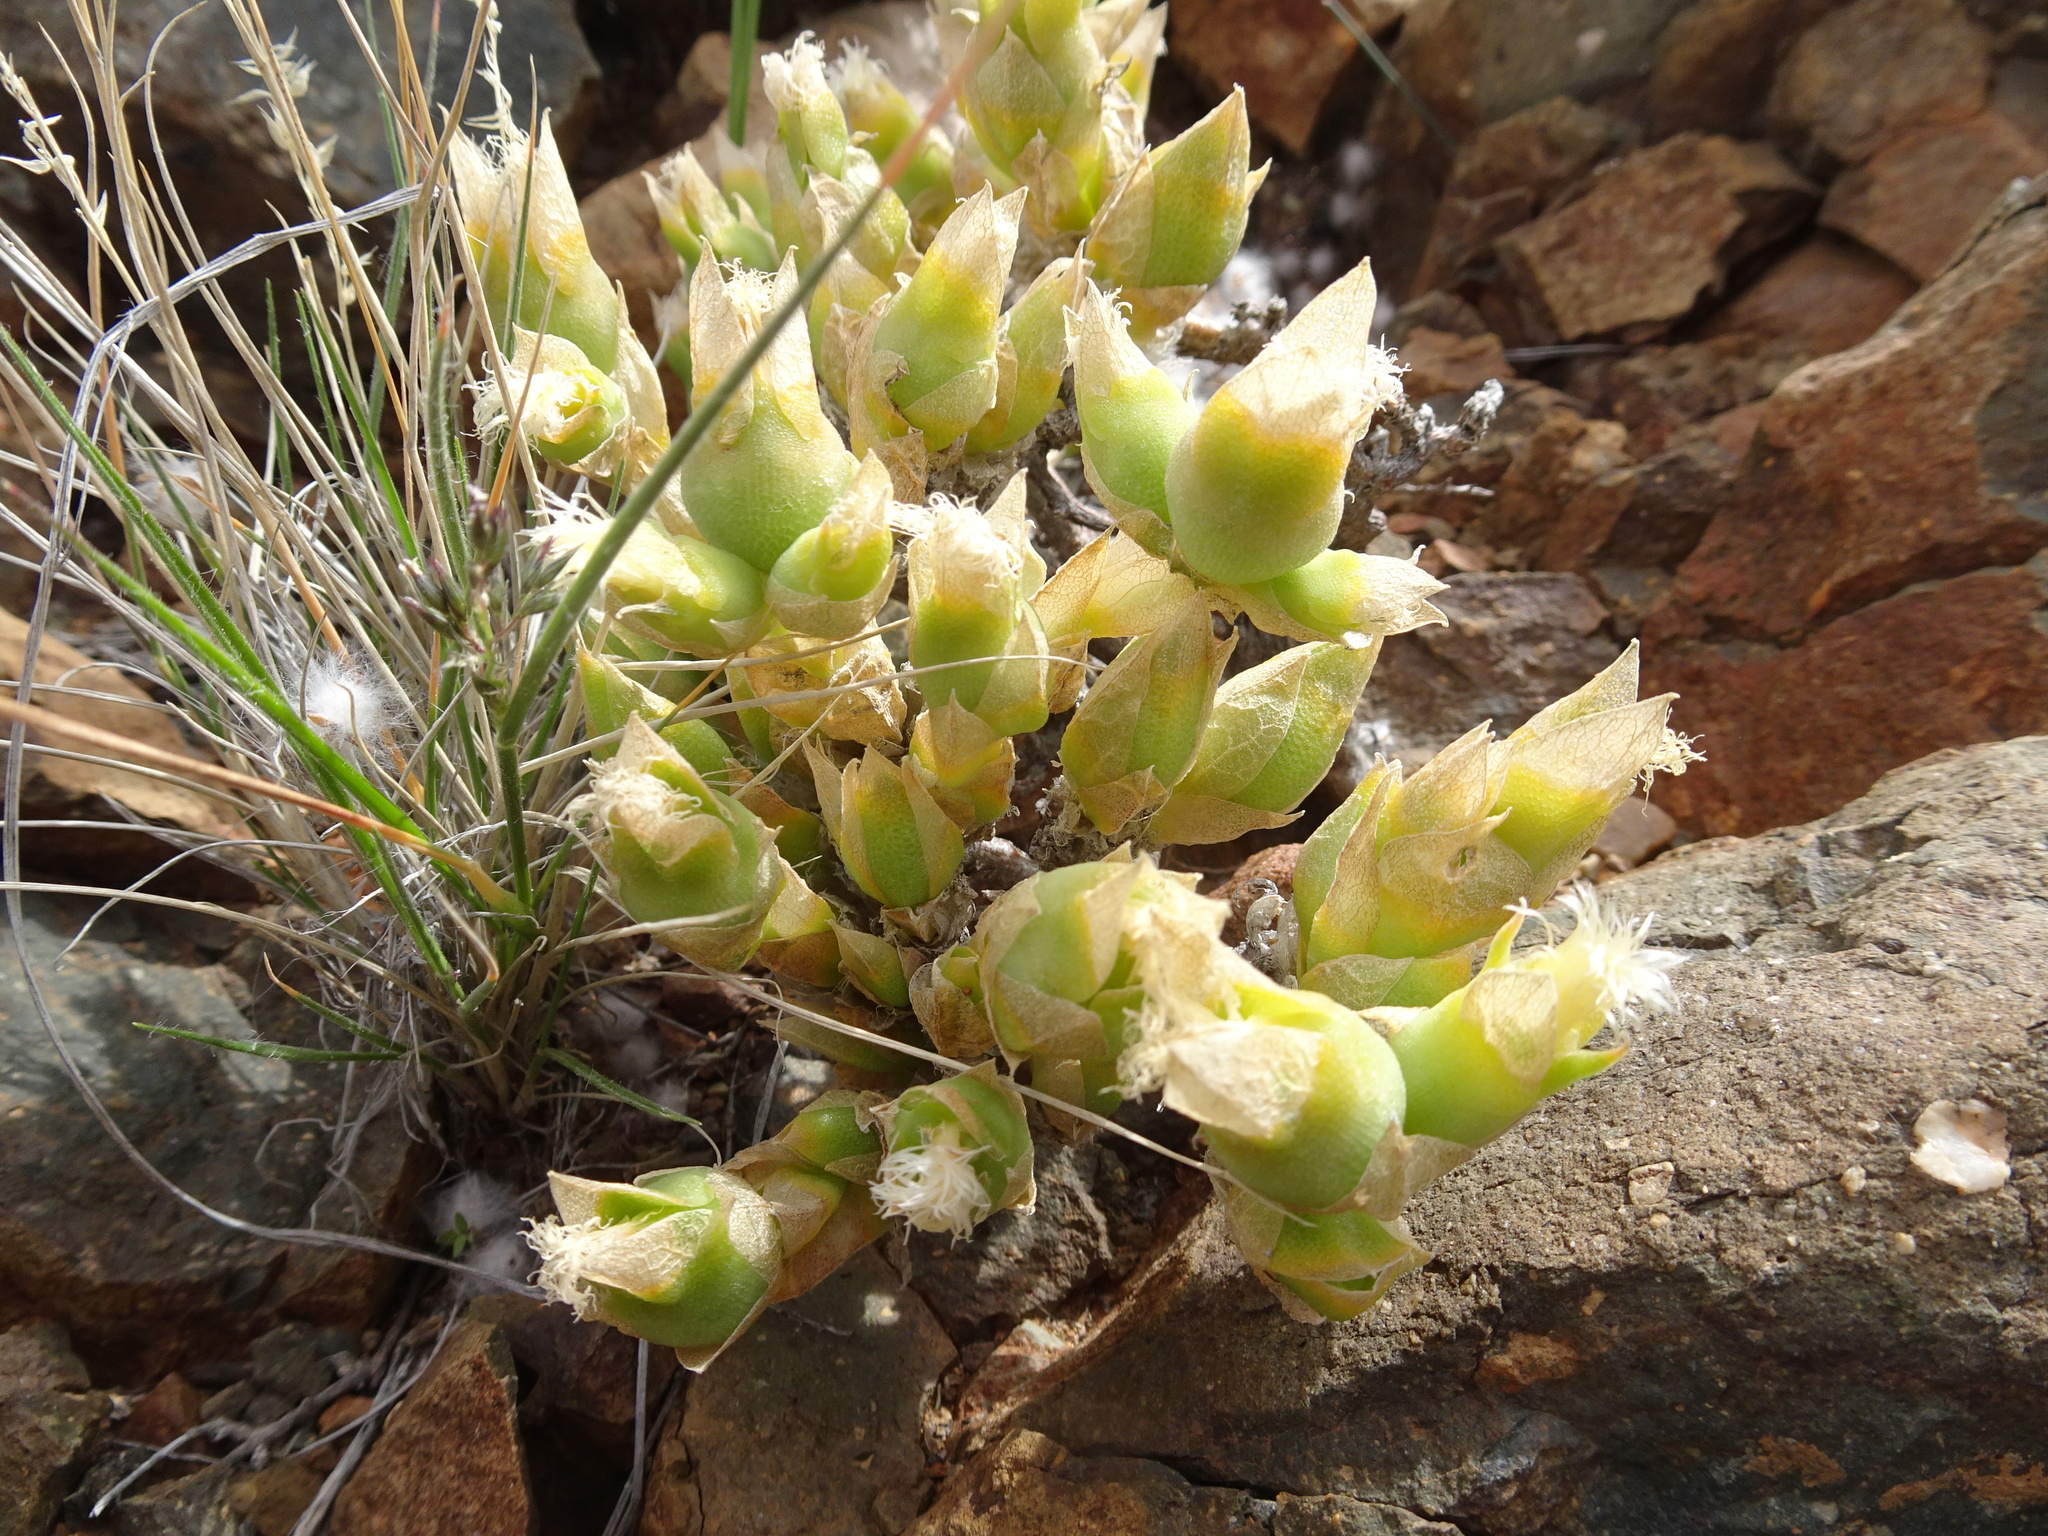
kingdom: Plantae
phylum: Tracheophyta
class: Magnoliopsida
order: Caryophyllales
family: Aizoaceae
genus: Mesembryanthemum
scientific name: Mesembryanthemum tortuosum
